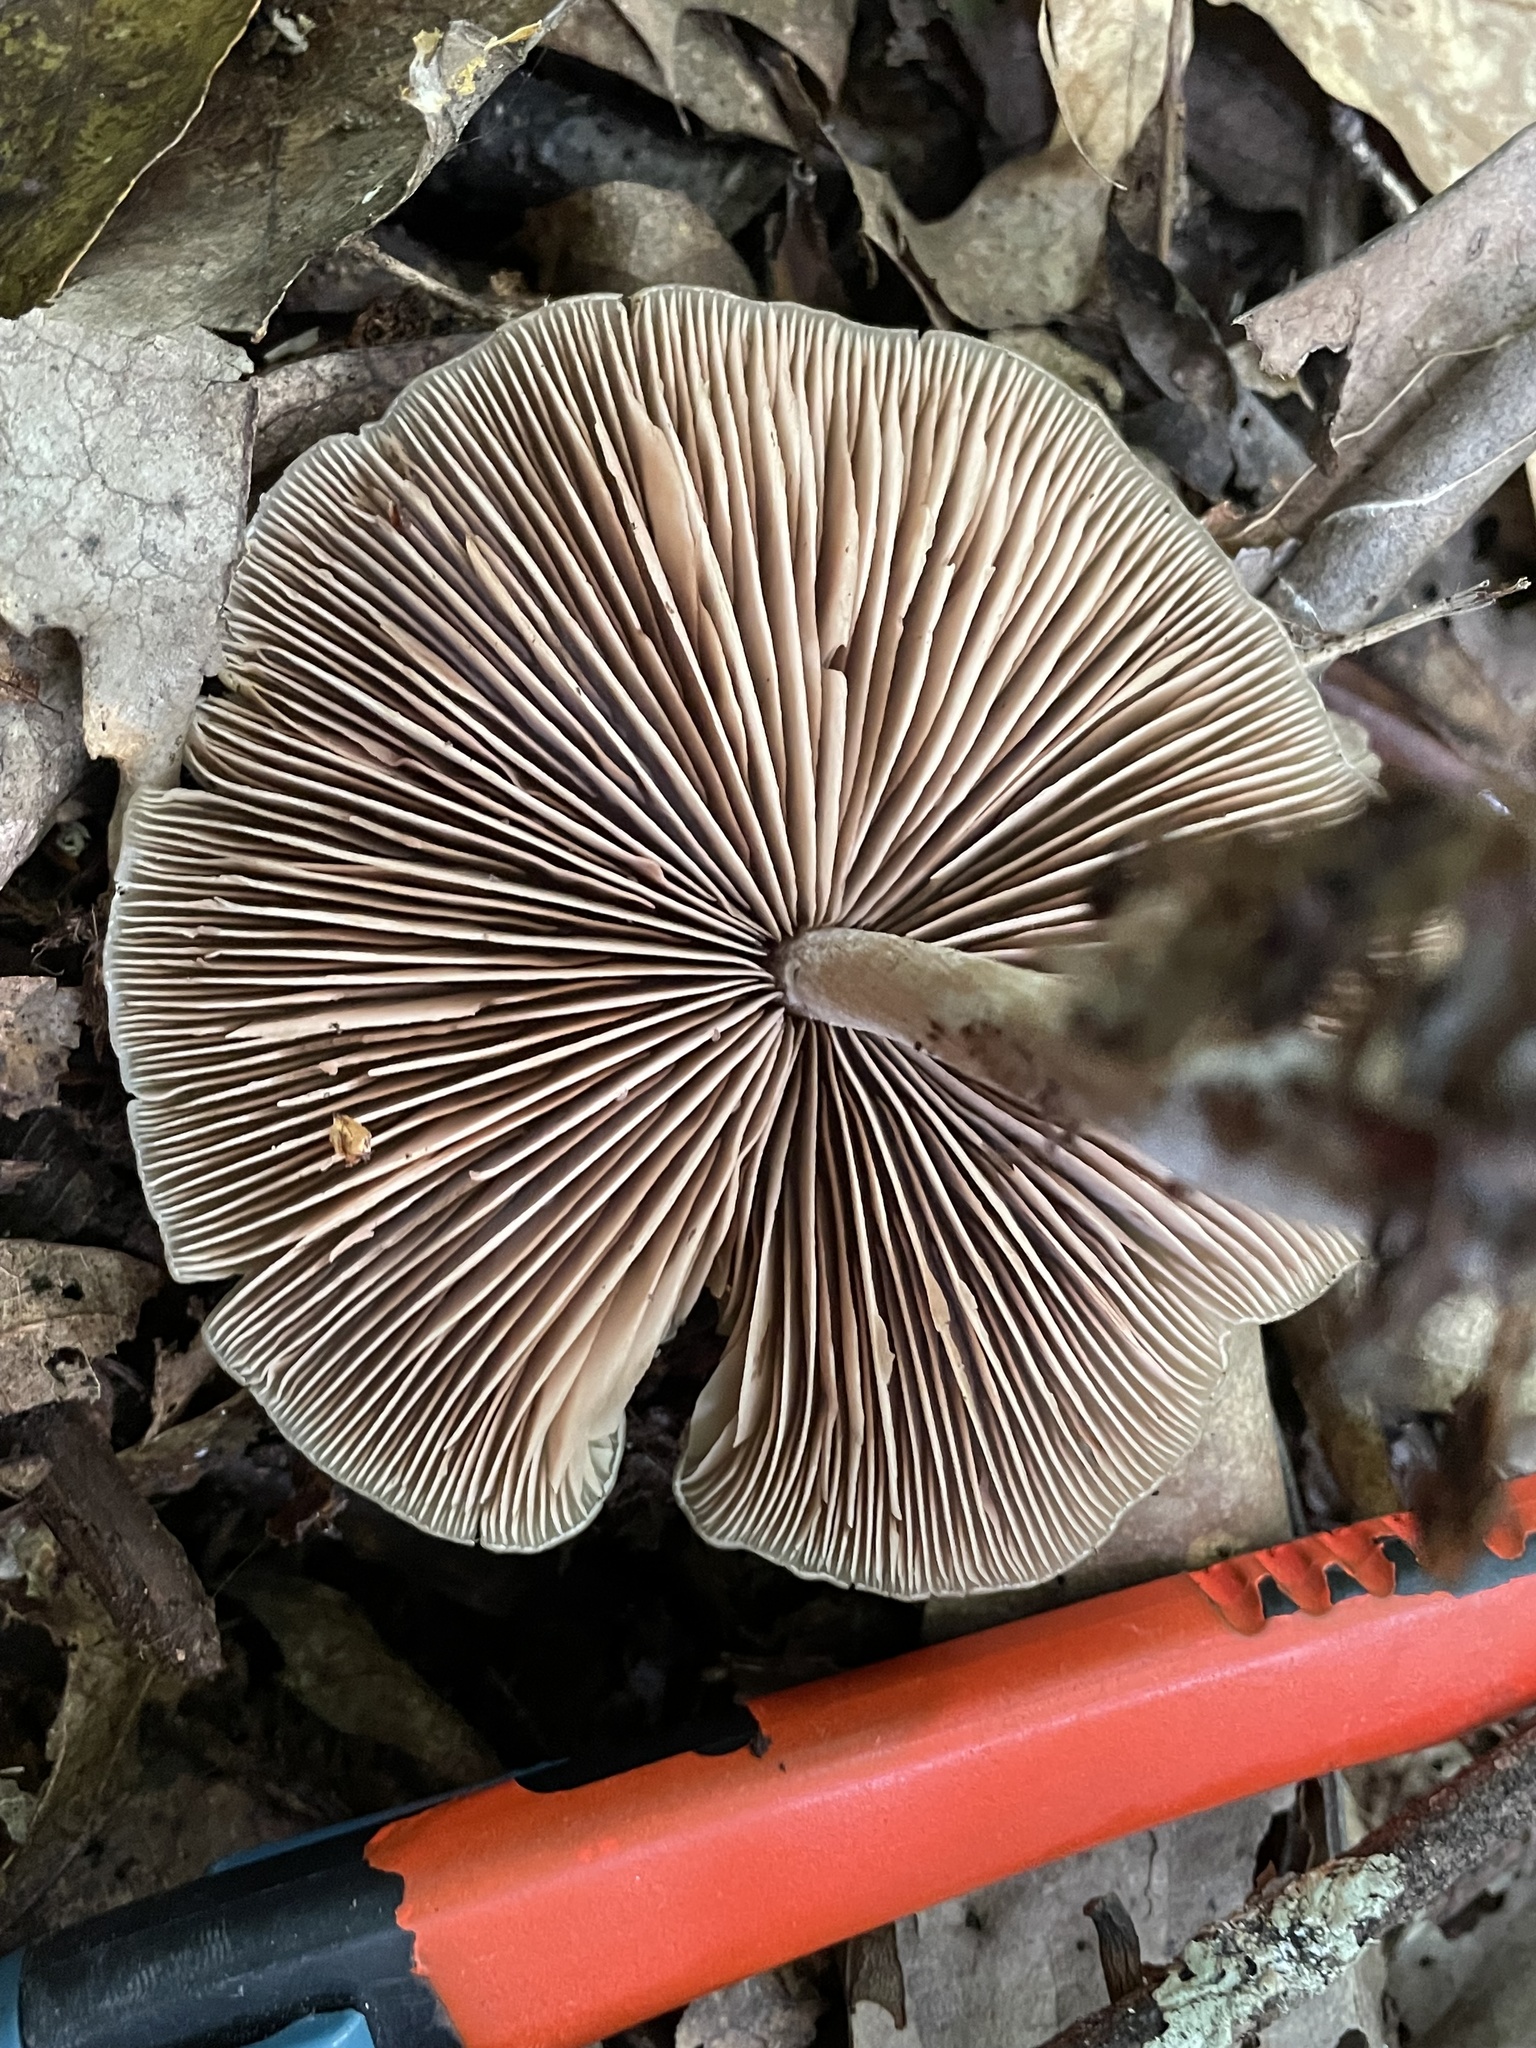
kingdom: Fungi
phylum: Basidiomycota
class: Agaricomycetes
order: Agaricales
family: Entolomataceae
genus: Entoloma
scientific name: Entoloma strictius
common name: Straight-stalked entoloma
